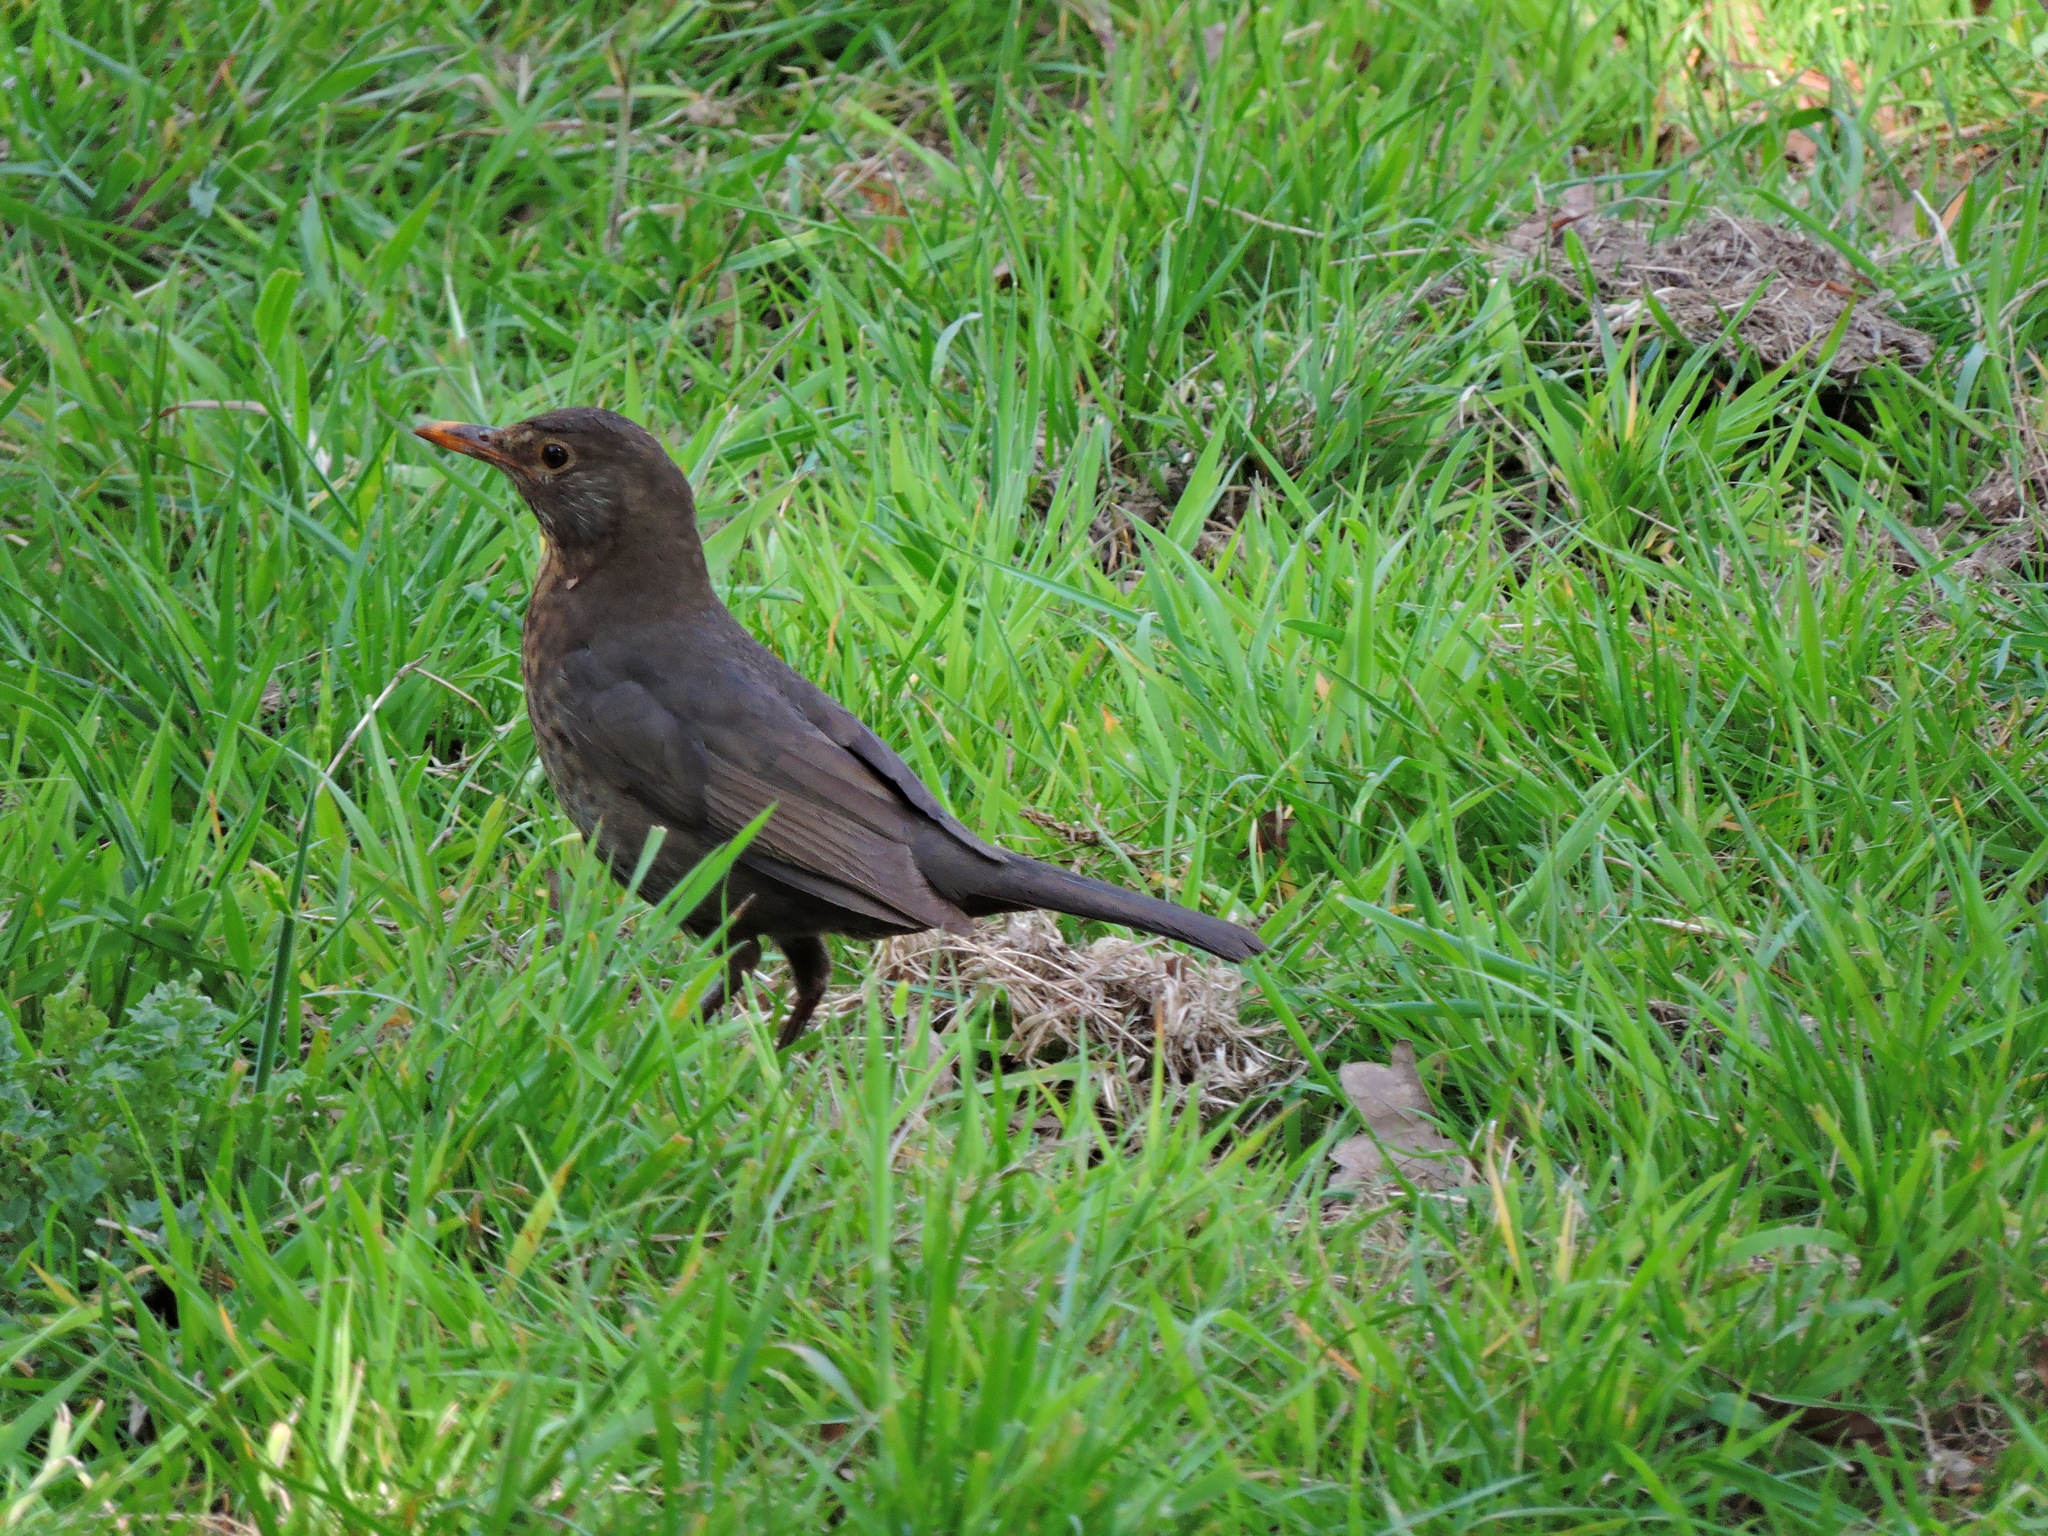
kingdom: Animalia
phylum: Chordata
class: Aves
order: Passeriformes
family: Turdidae
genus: Turdus
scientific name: Turdus merula
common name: Common blackbird
